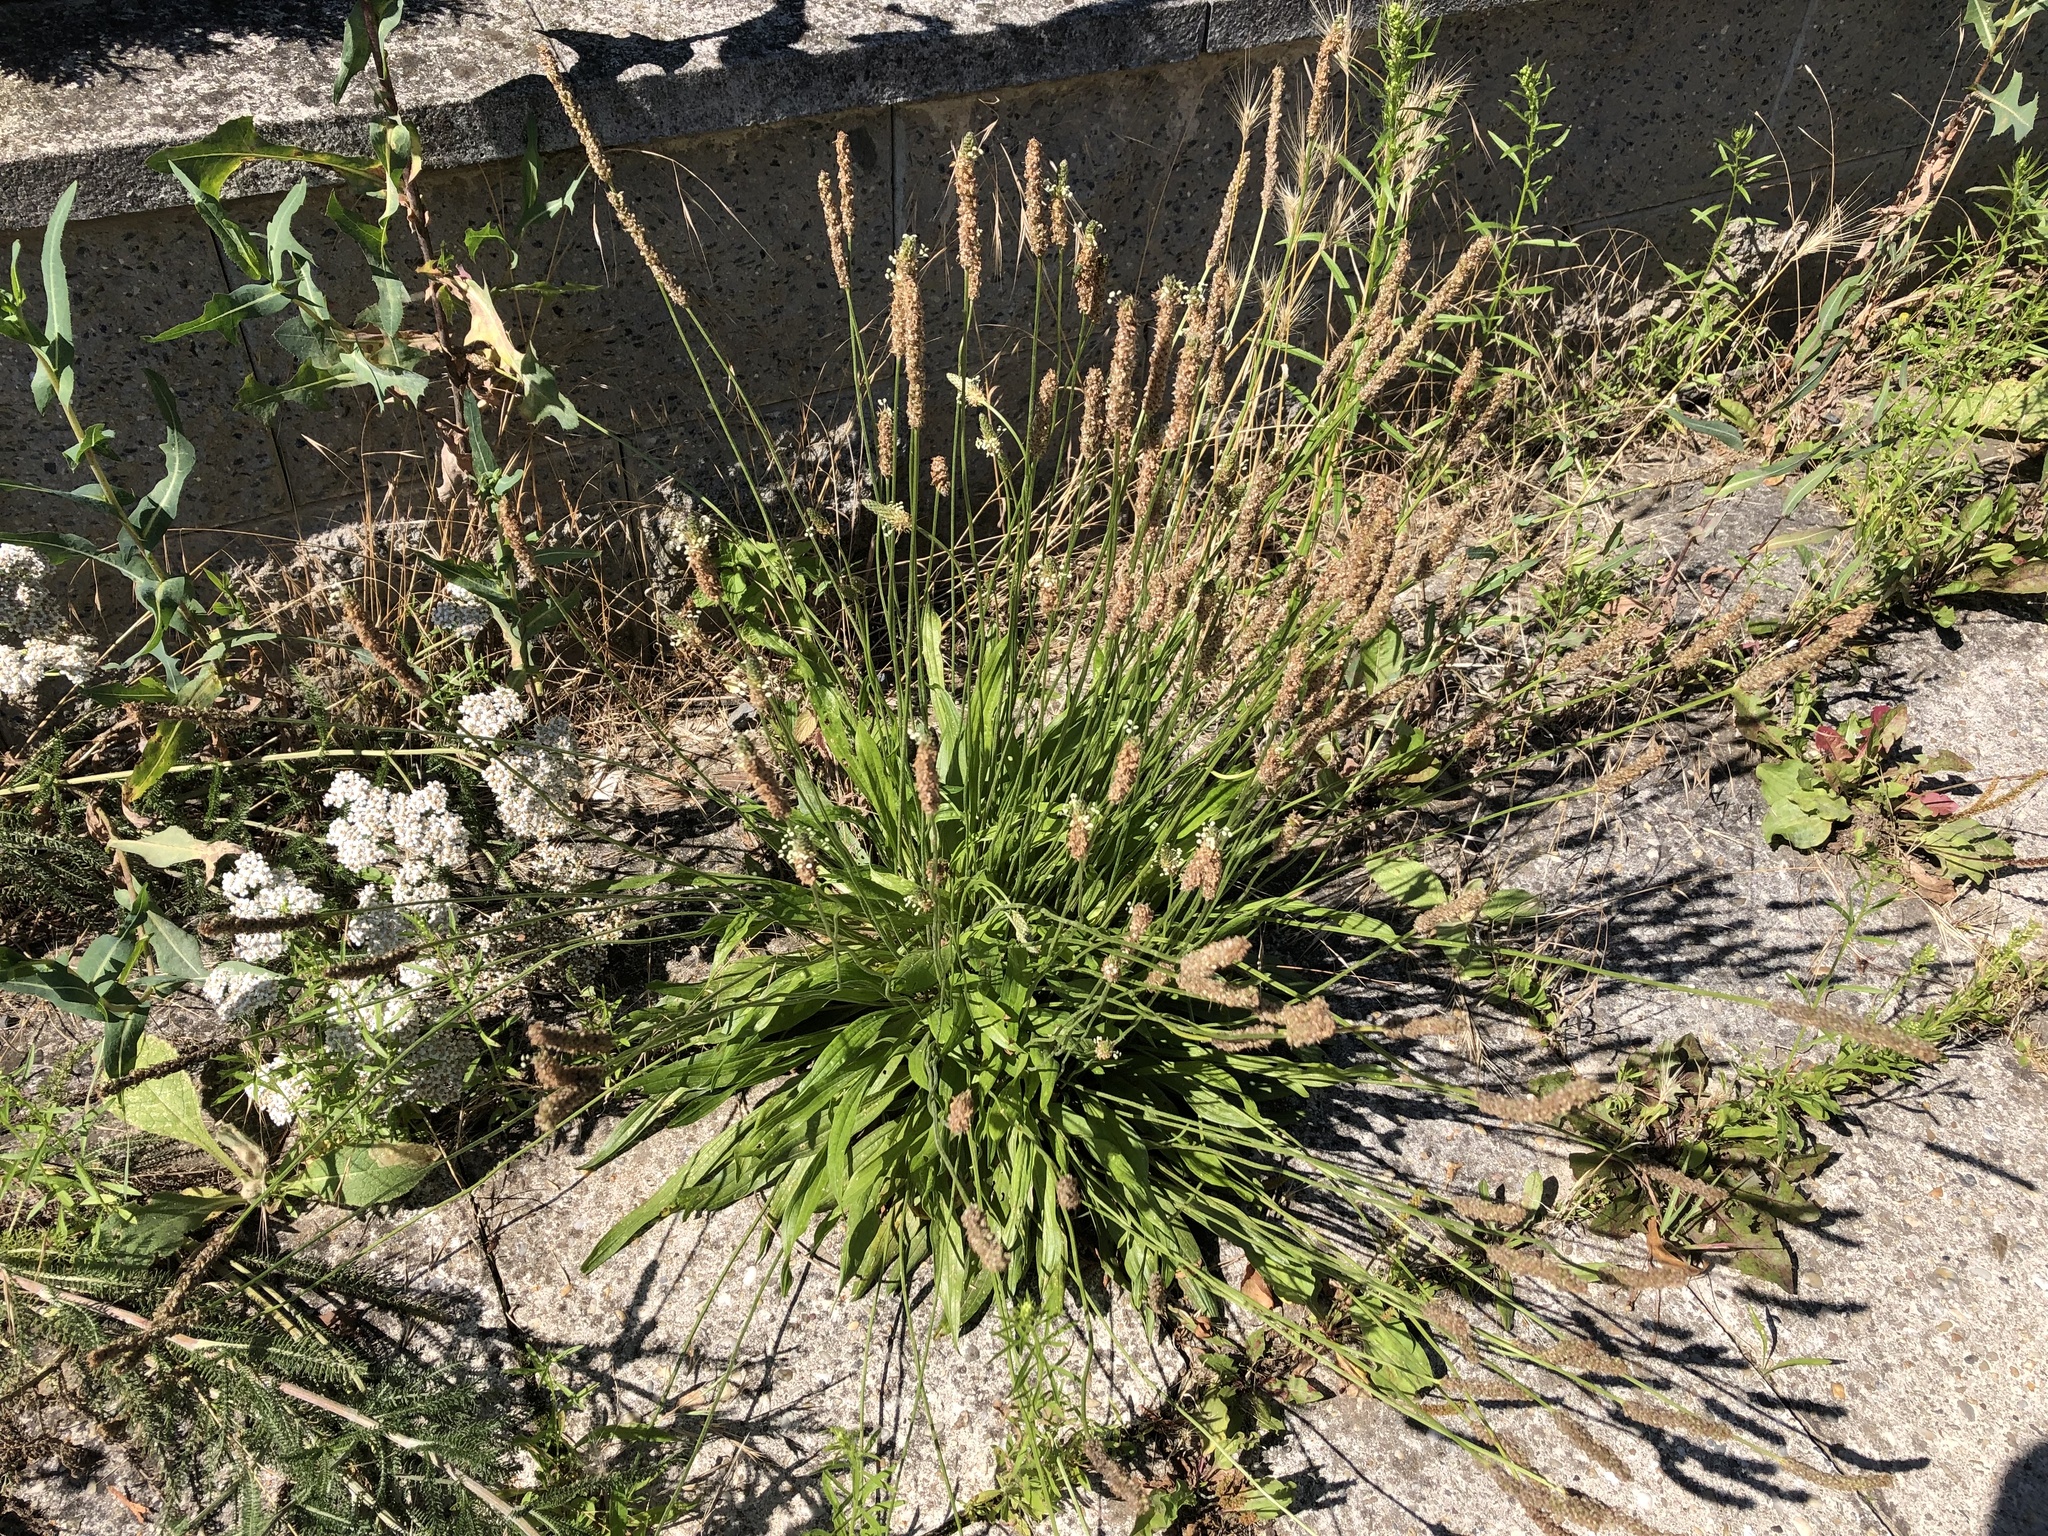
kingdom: Plantae
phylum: Tracheophyta
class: Magnoliopsida
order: Lamiales
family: Plantaginaceae
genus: Plantago
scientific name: Plantago lanceolata
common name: Ribwort plantain
